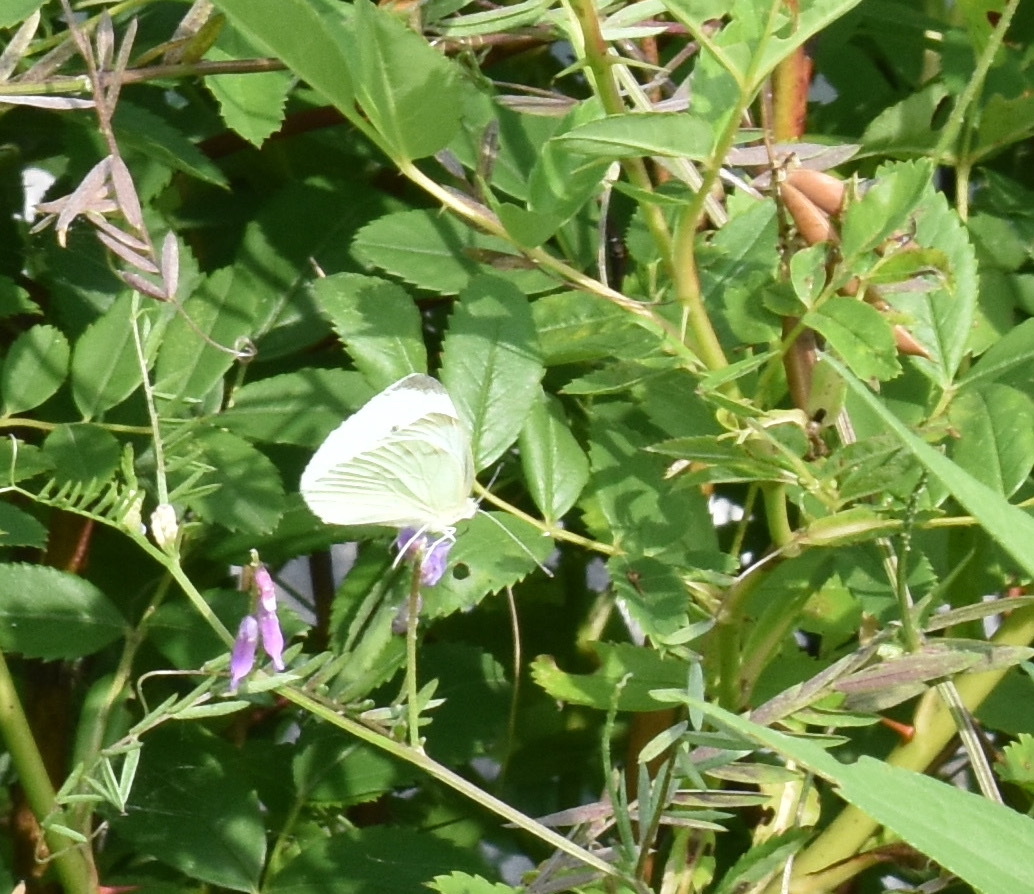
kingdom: Animalia
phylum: Arthropoda
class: Insecta
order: Lepidoptera
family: Pieridae
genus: Pieris
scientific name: Pieris rapae
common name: Small white
